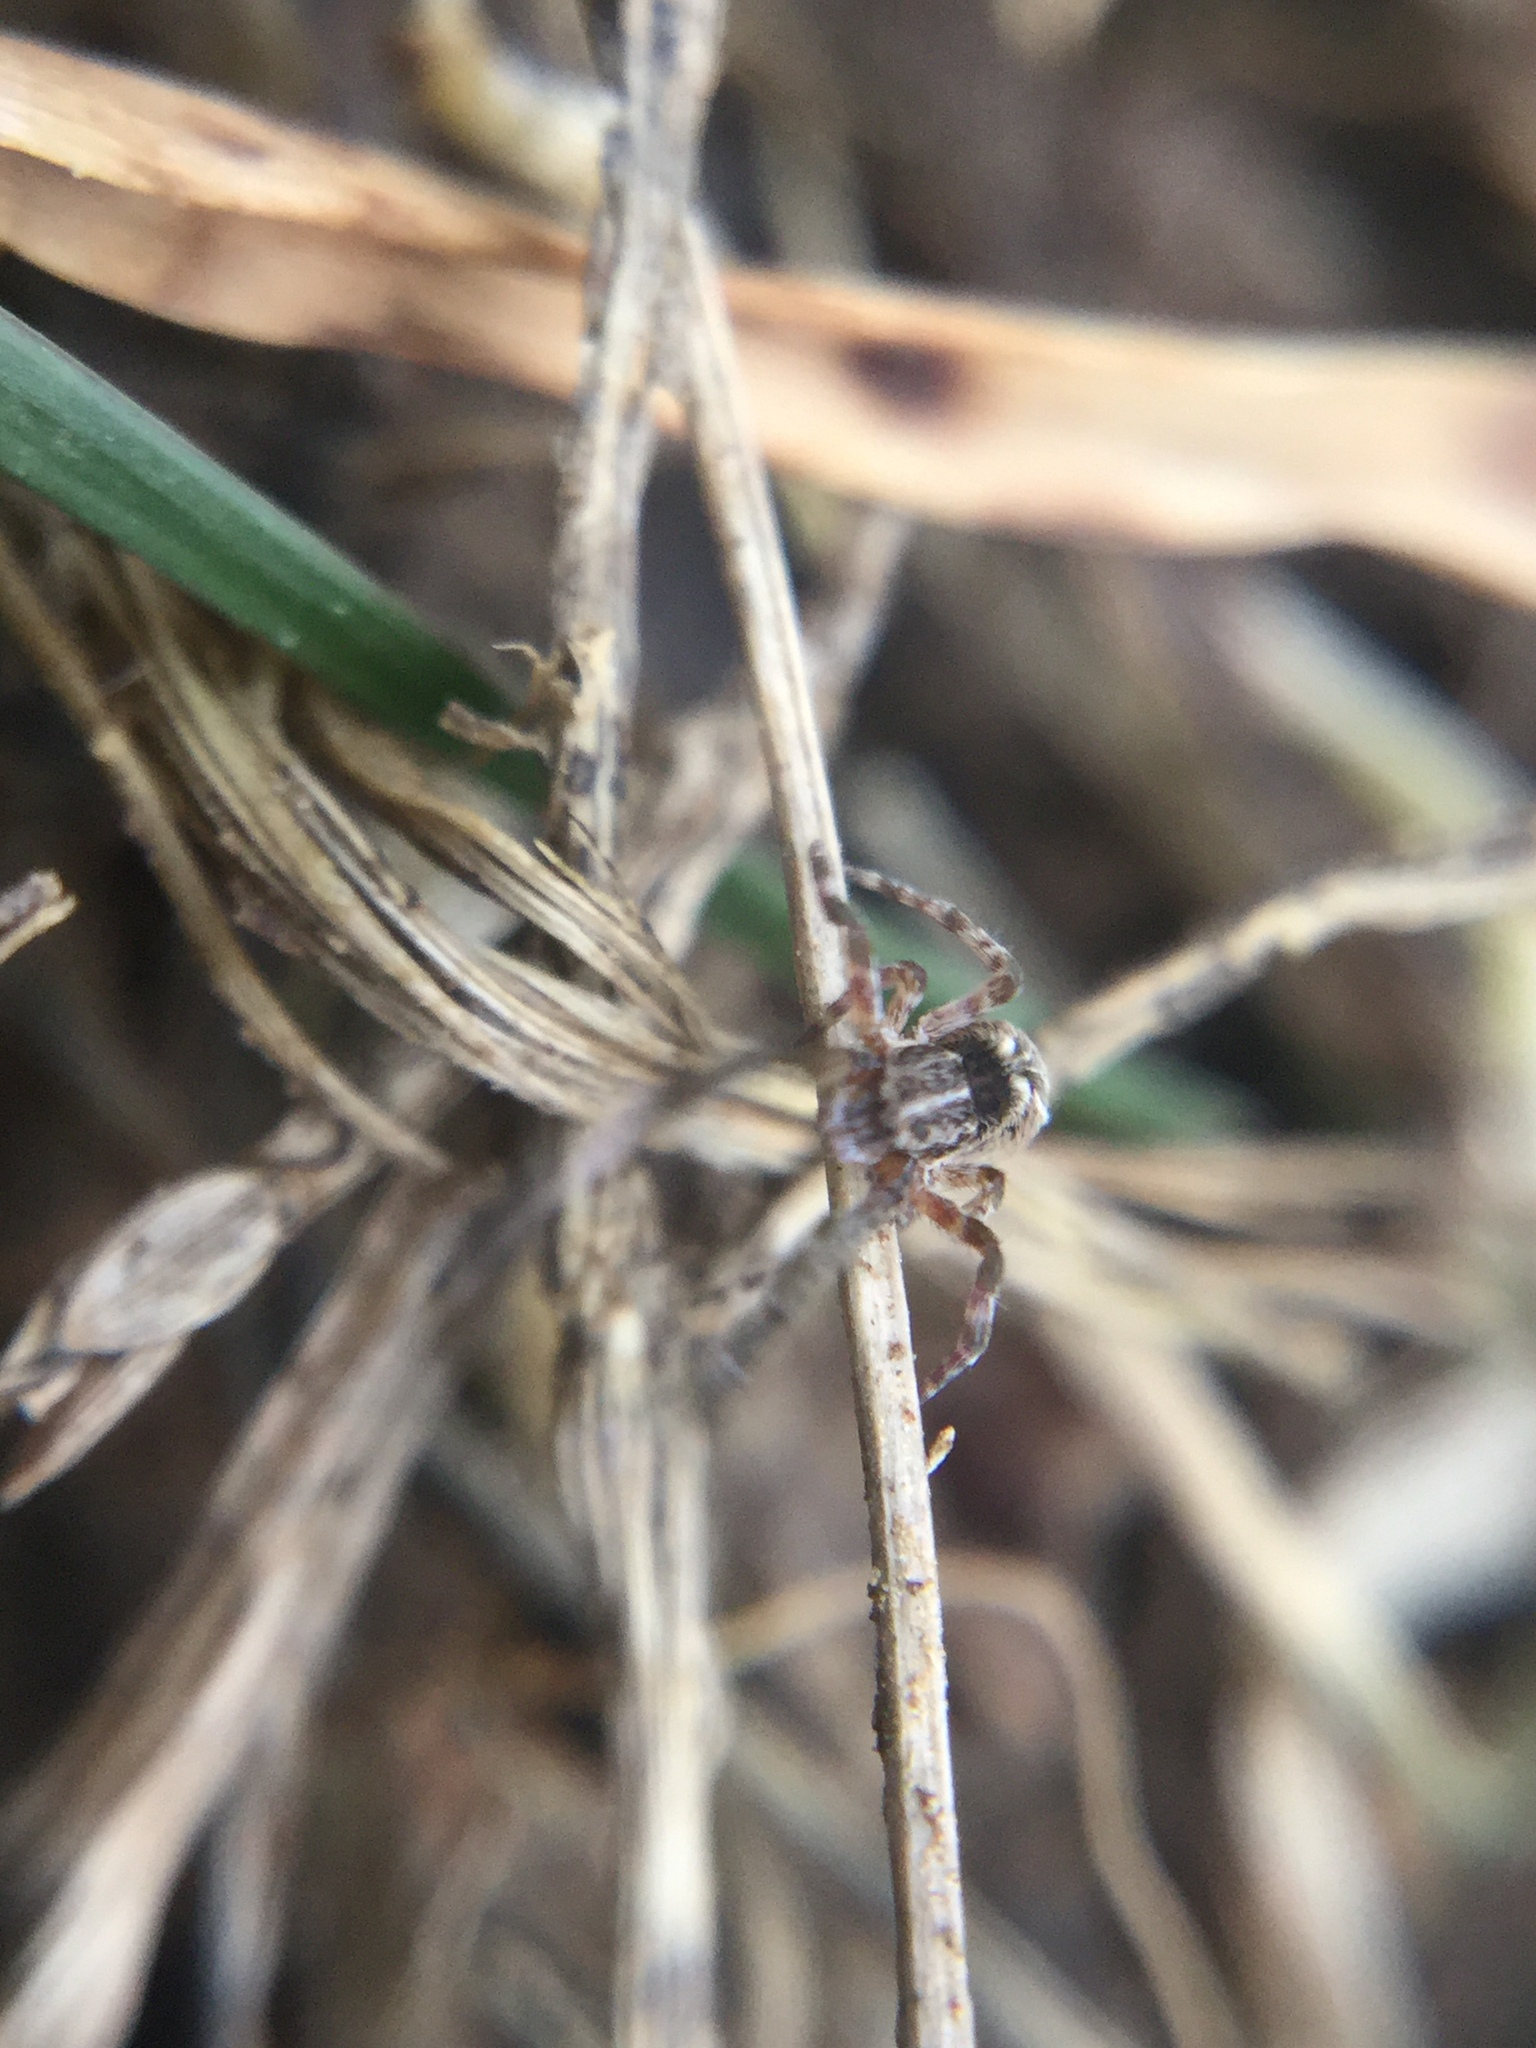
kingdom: Animalia
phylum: Arthropoda
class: Arachnida
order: Araneae
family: Uloboridae
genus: Uloborus
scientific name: Uloborus glomosus
